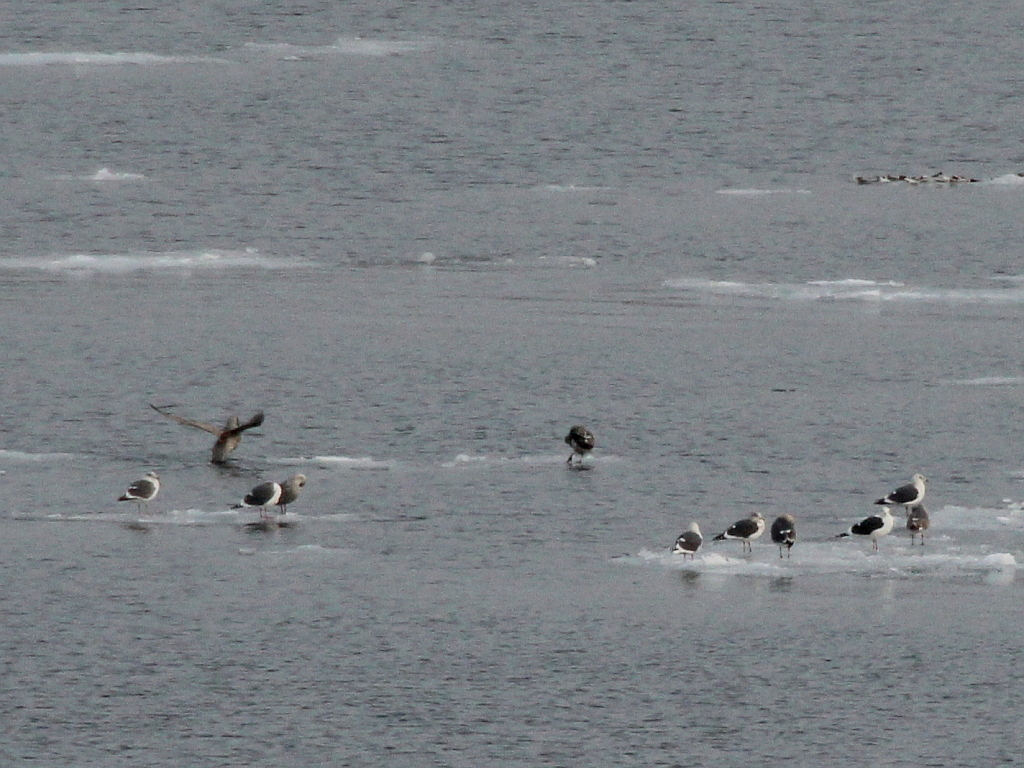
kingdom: Animalia
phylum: Chordata
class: Aves
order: Charadriiformes
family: Laridae
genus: Larus
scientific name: Larus schistisagus
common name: Slaty-backed gull
